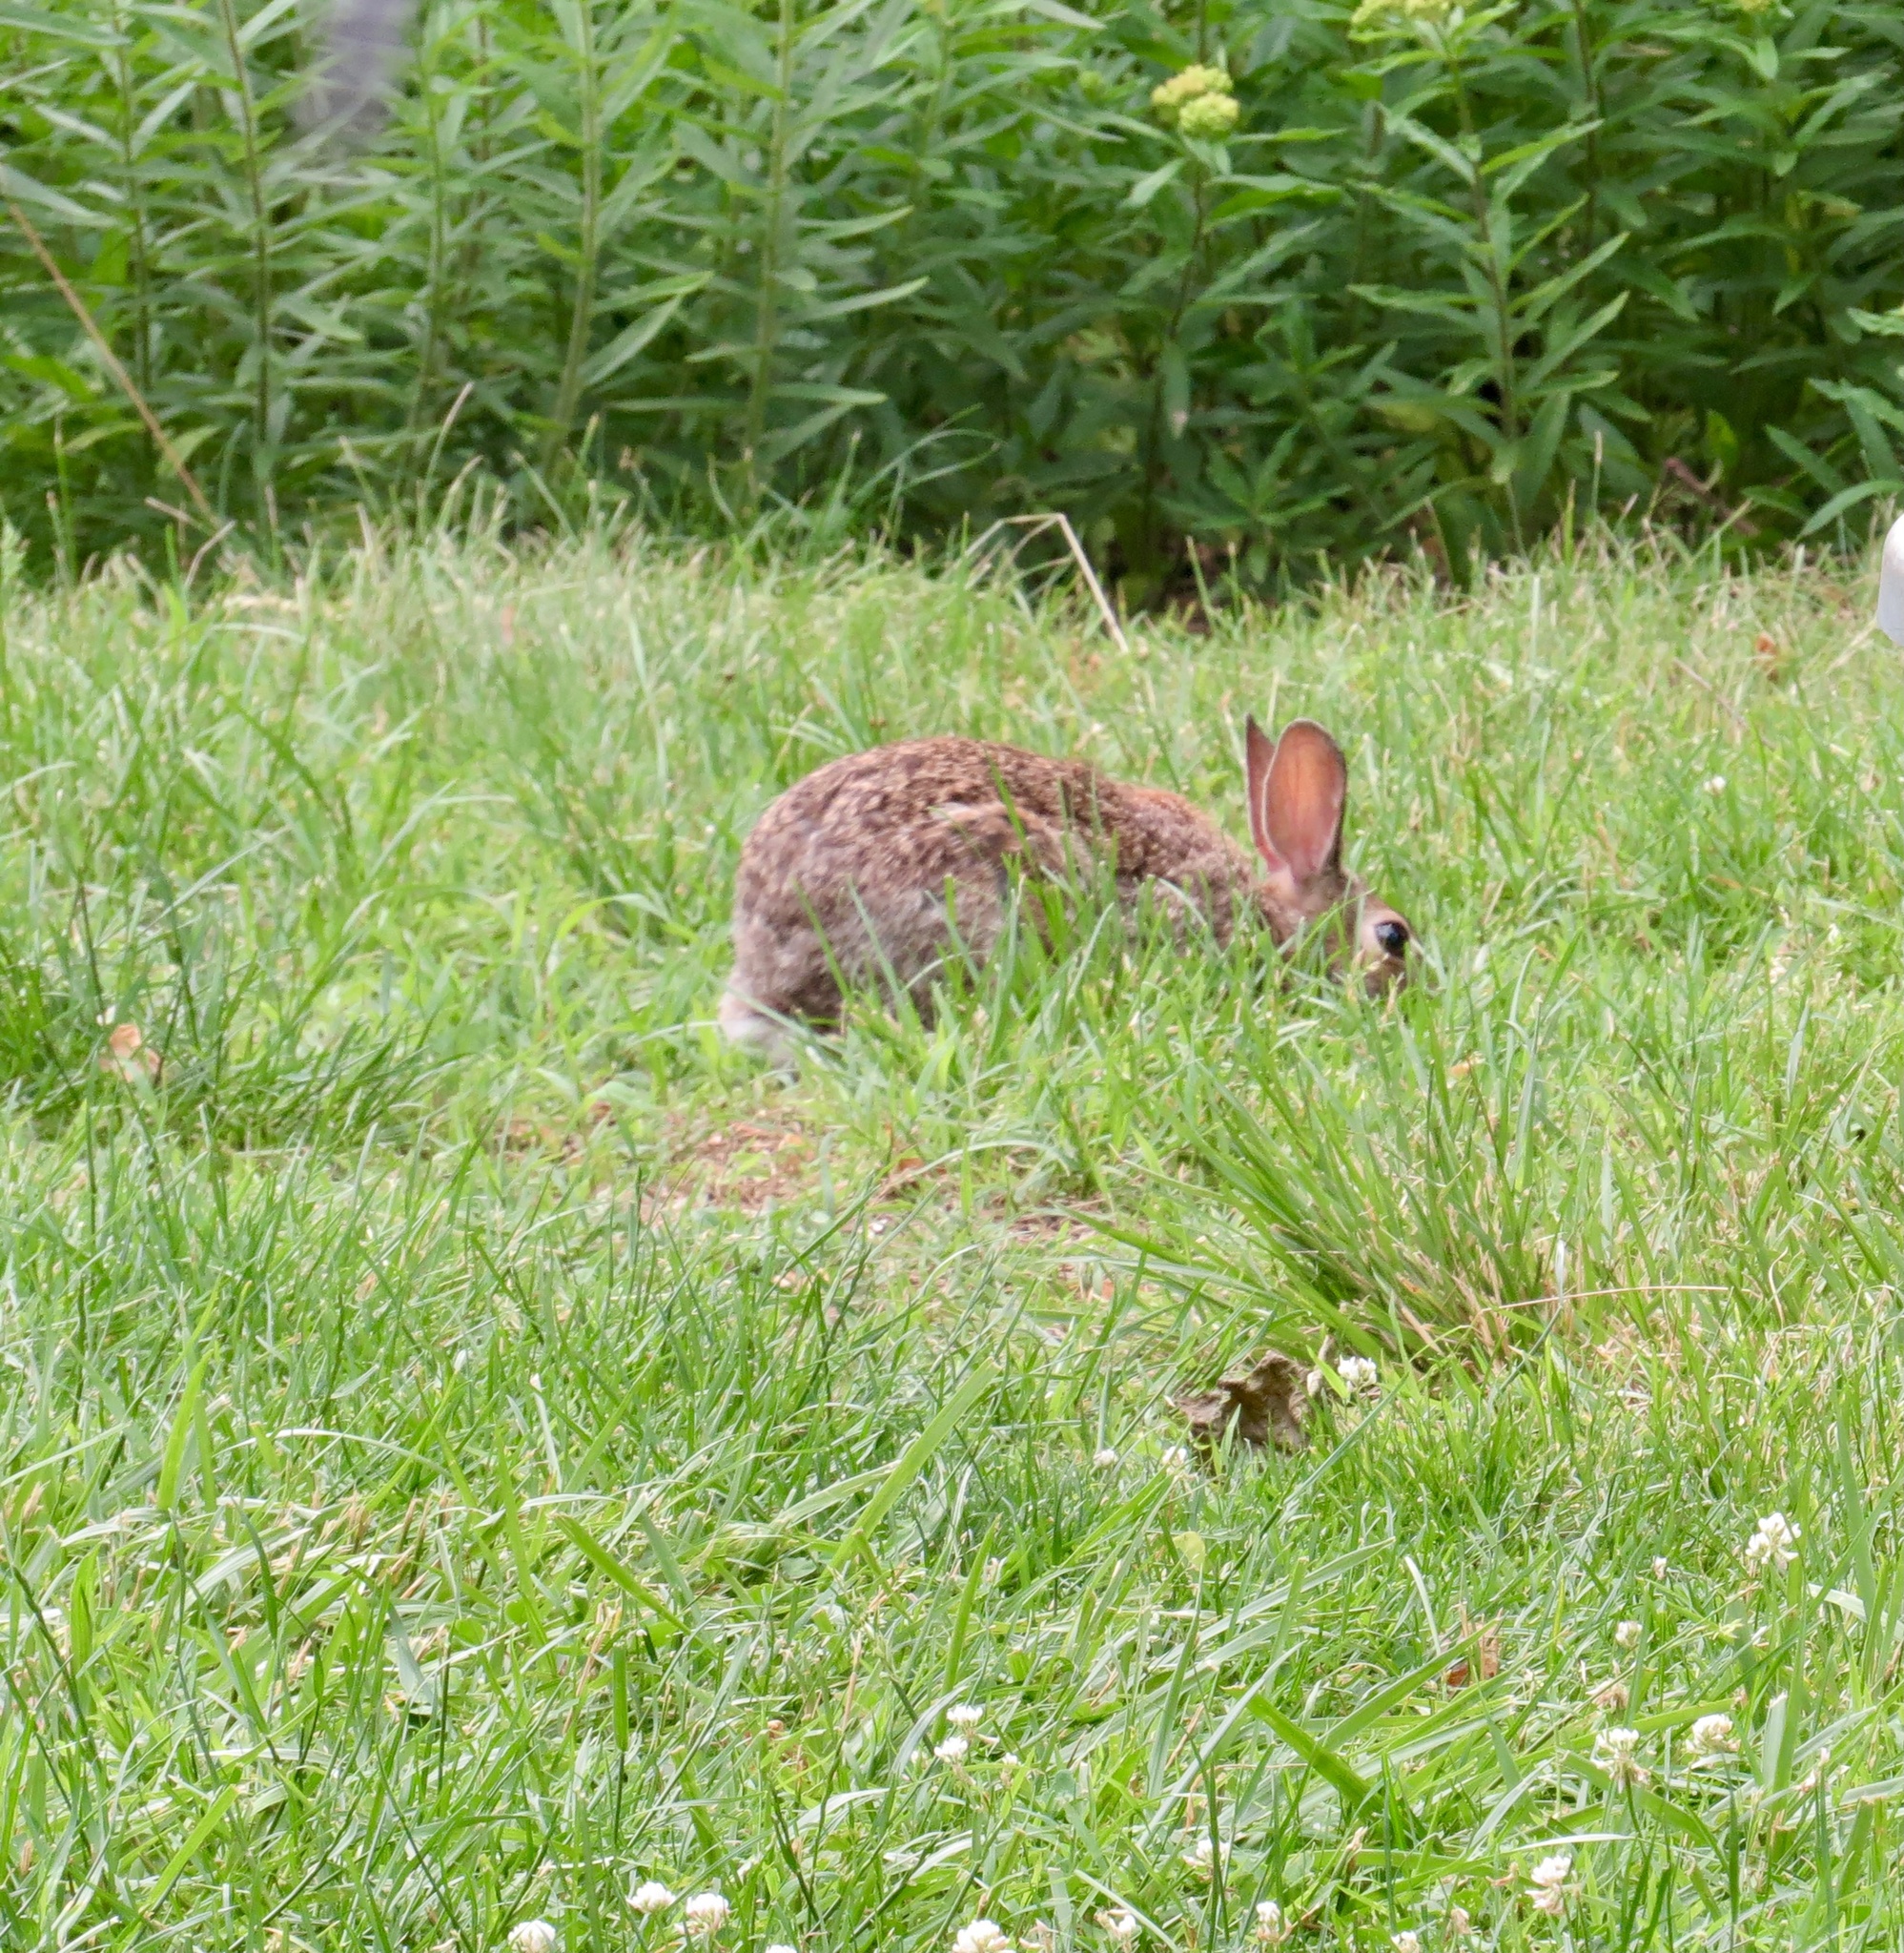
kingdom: Animalia
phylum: Chordata
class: Mammalia
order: Lagomorpha
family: Leporidae
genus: Sylvilagus
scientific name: Sylvilagus floridanus
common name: Eastern cottontail
